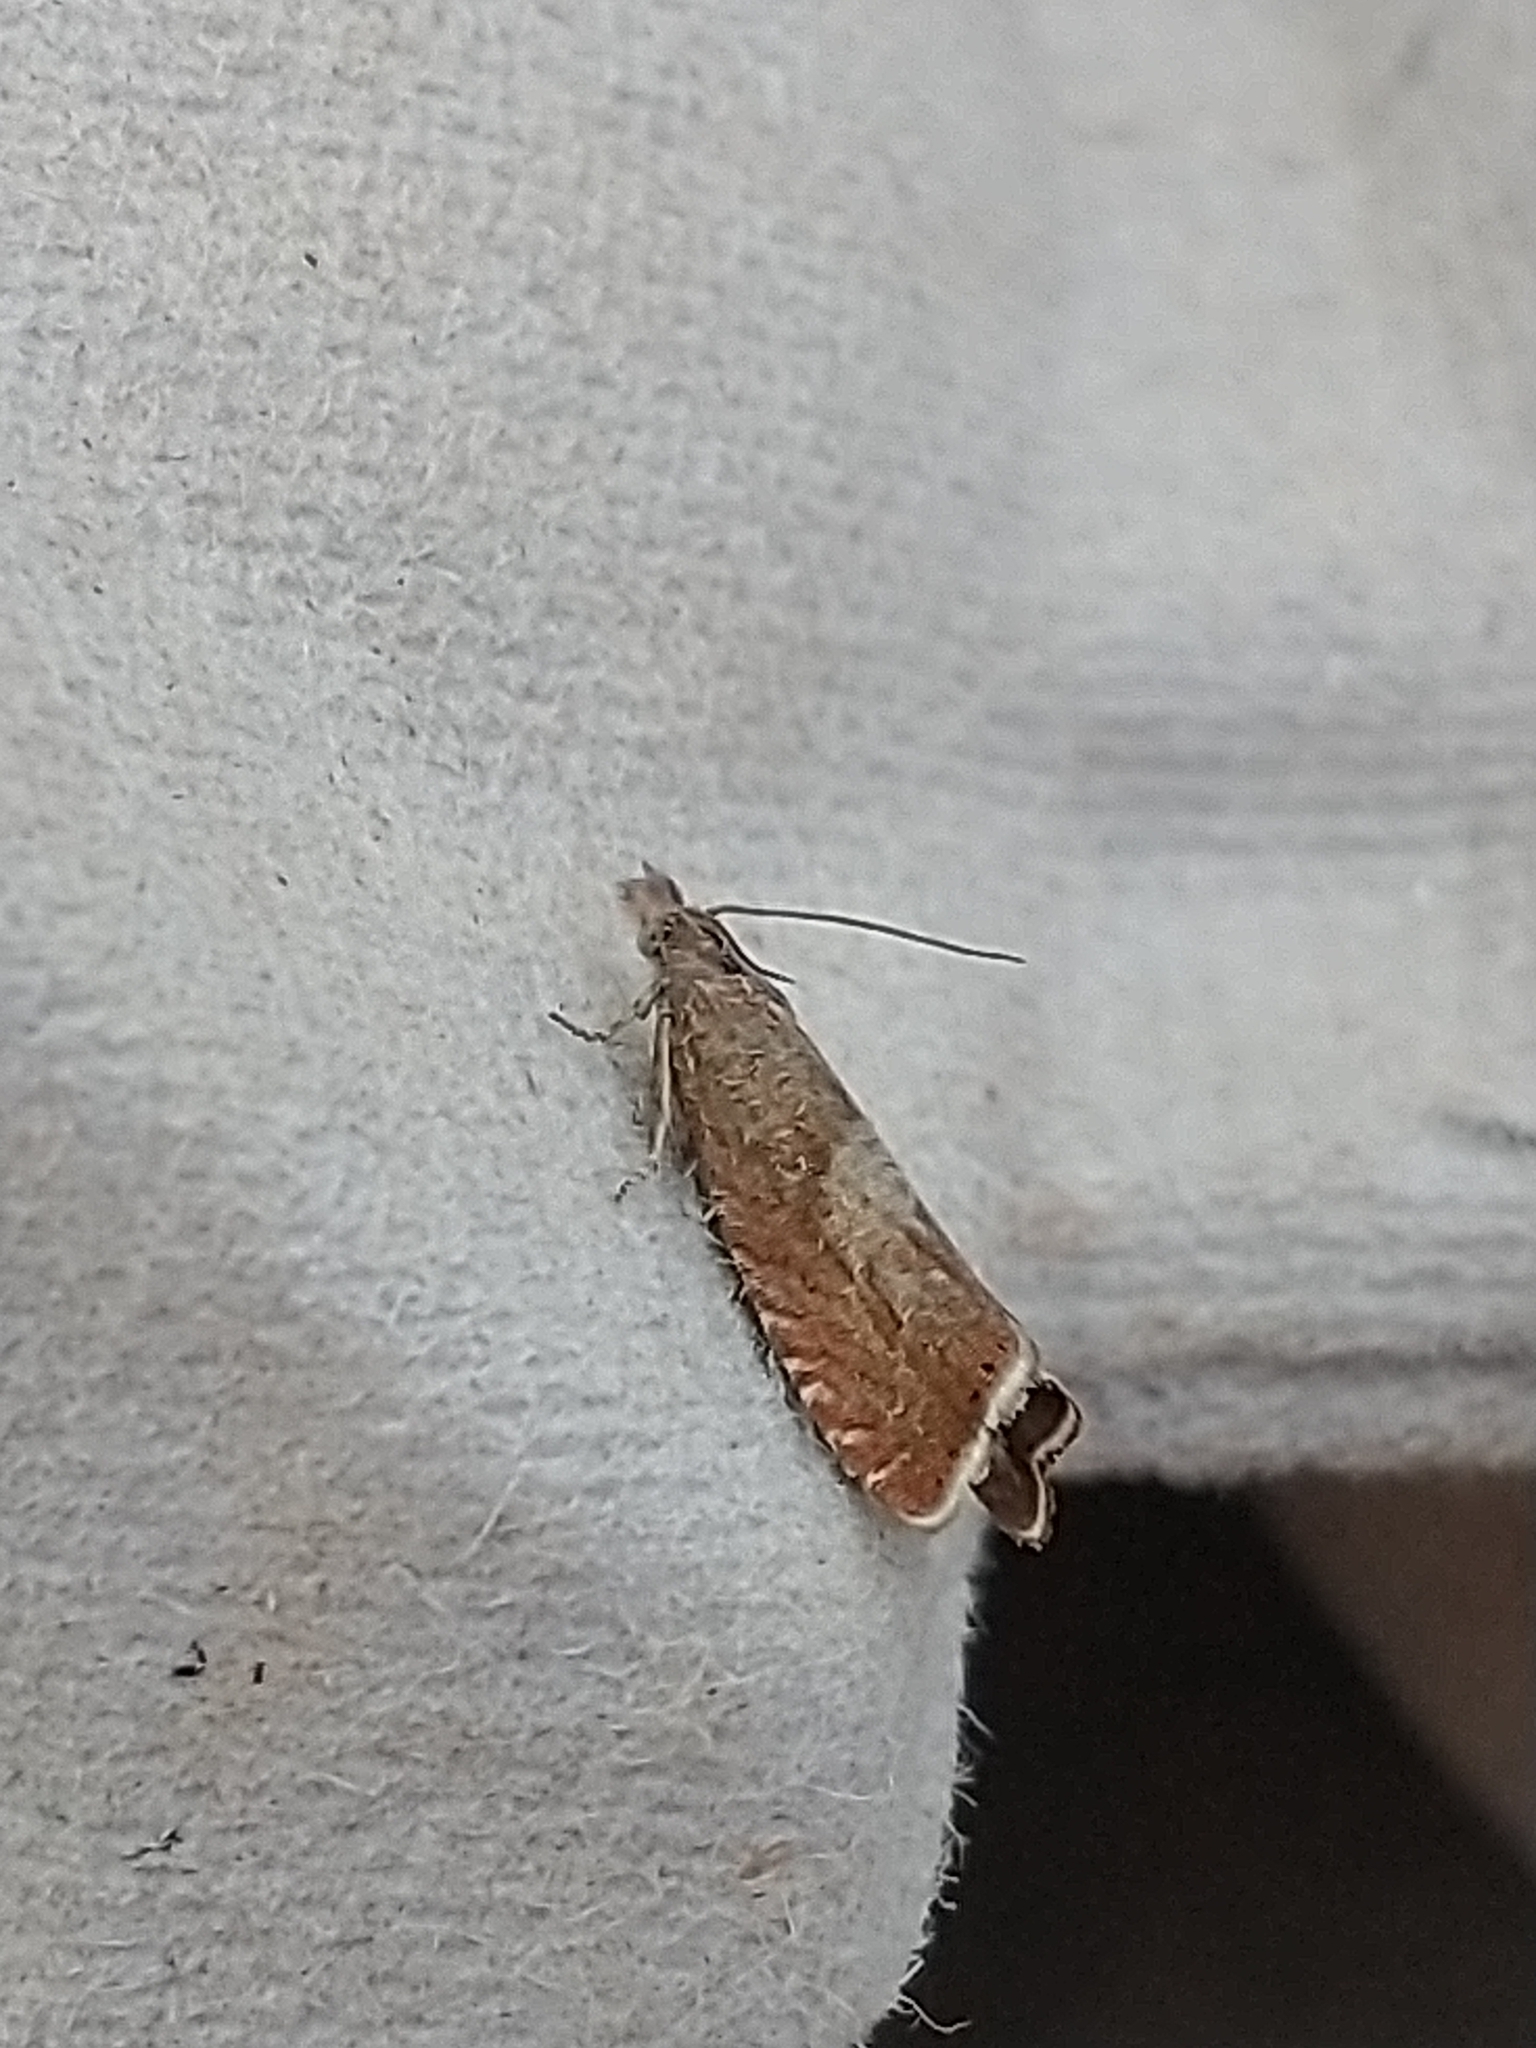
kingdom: Animalia
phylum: Arthropoda
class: Insecta
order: Lepidoptera
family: Tortricidae
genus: Dichrorampha
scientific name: Dichrorampha acuminatana
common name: Sharp-winged drill
